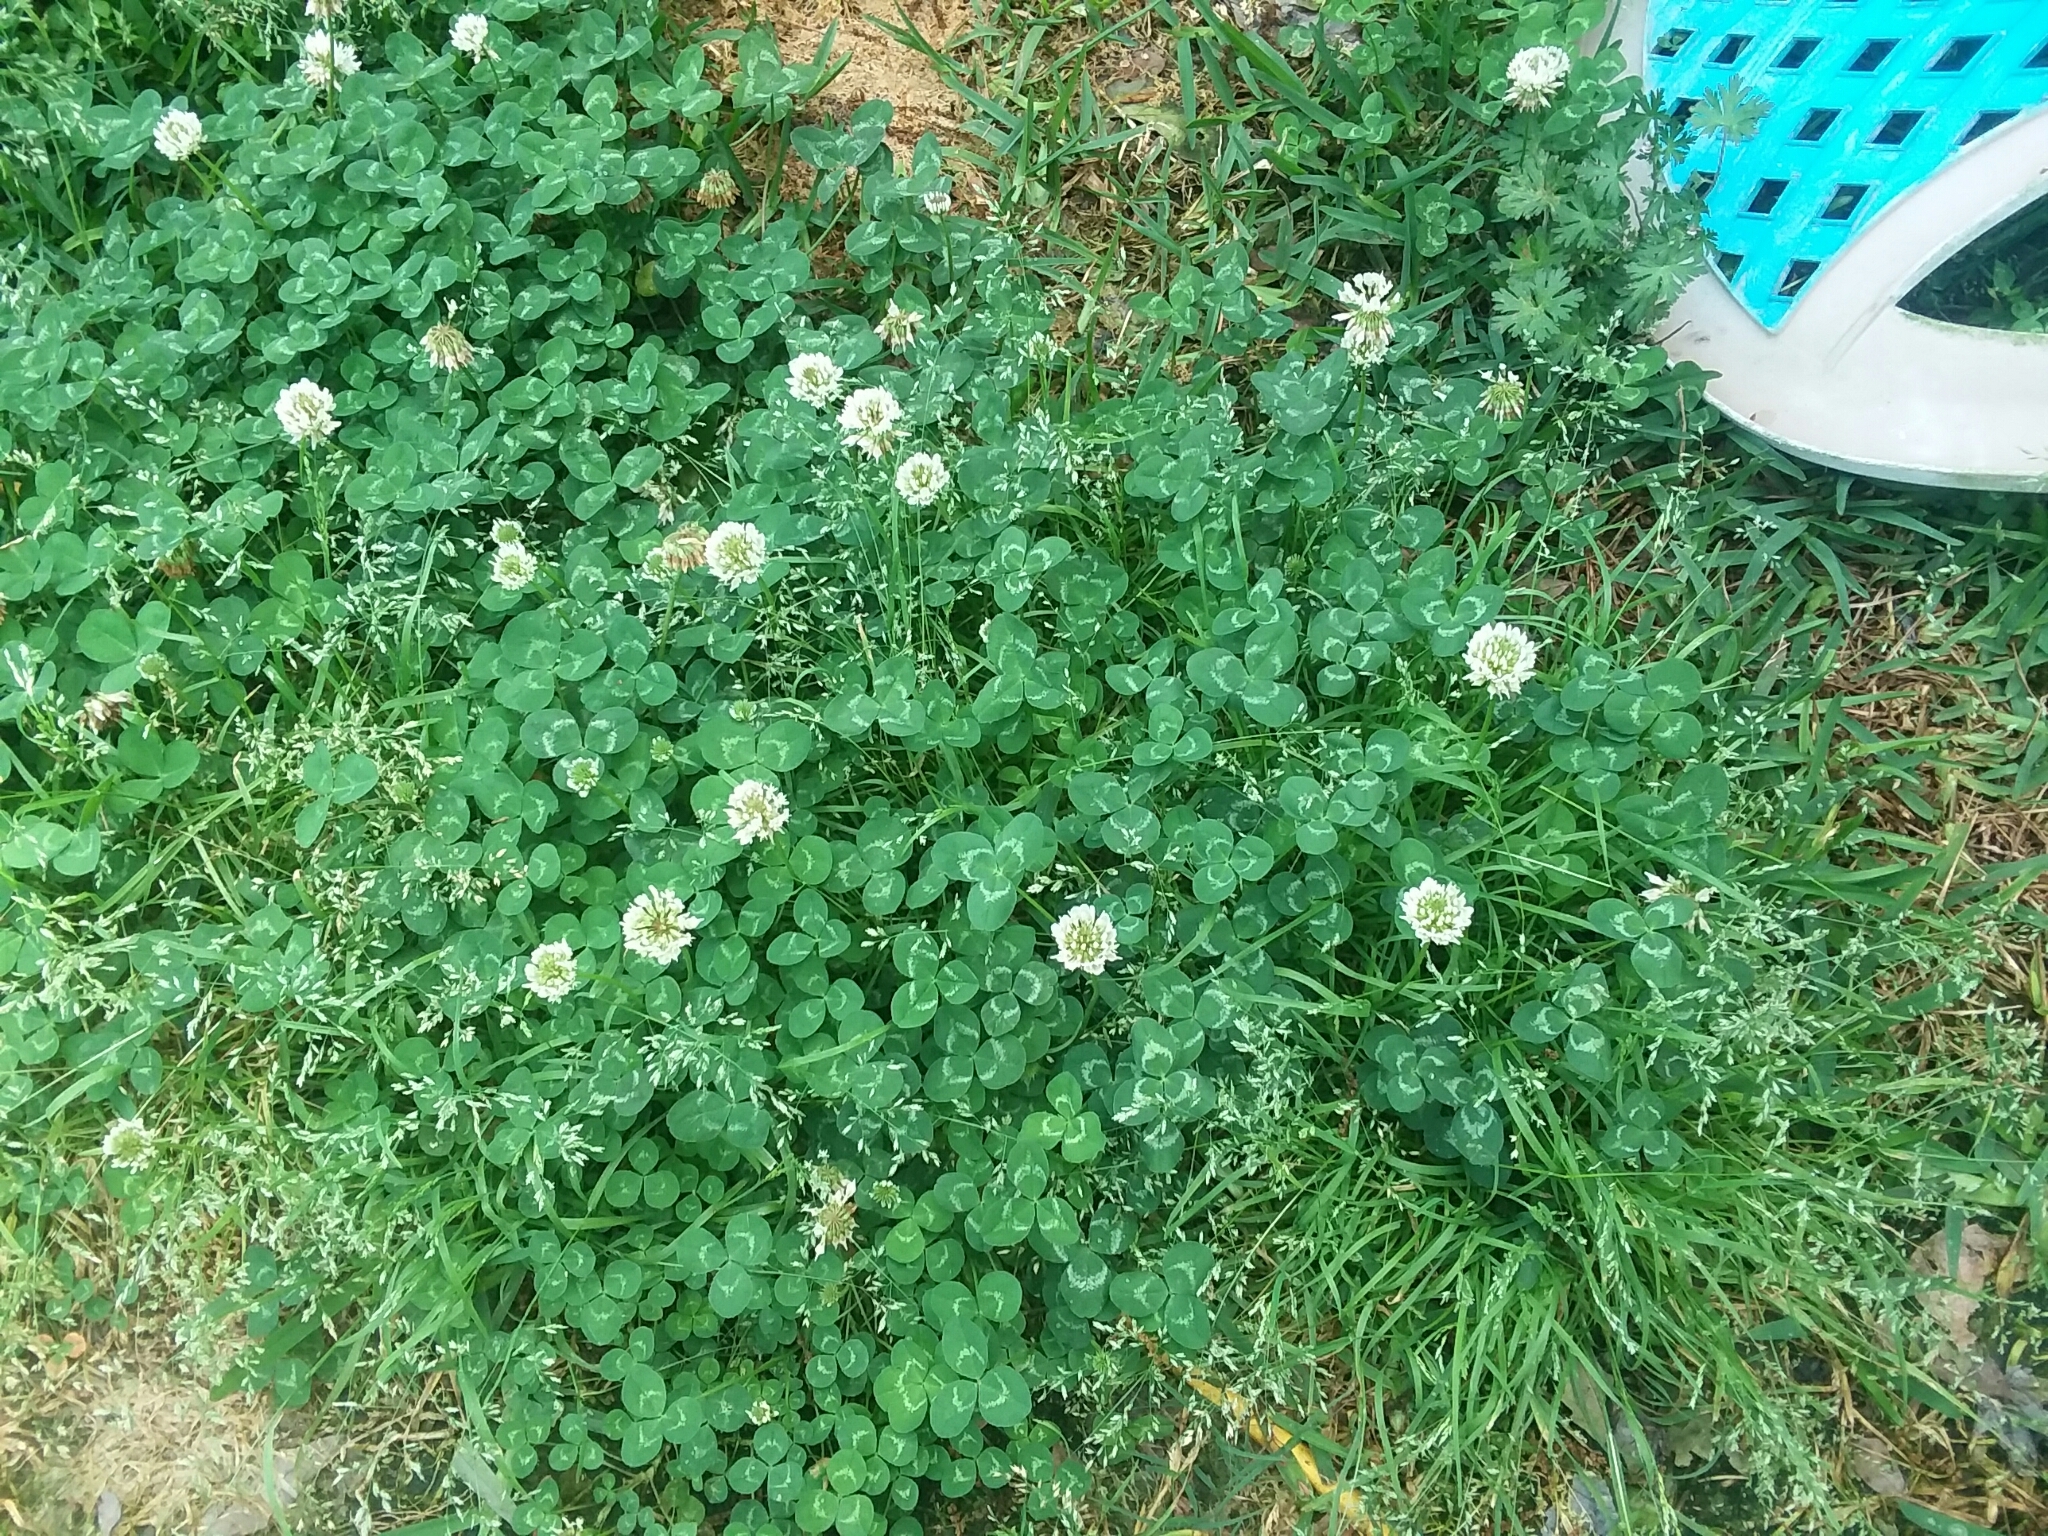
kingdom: Plantae
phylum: Tracheophyta
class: Magnoliopsida
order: Fabales
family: Fabaceae
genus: Trifolium
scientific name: Trifolium repens
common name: White clover
